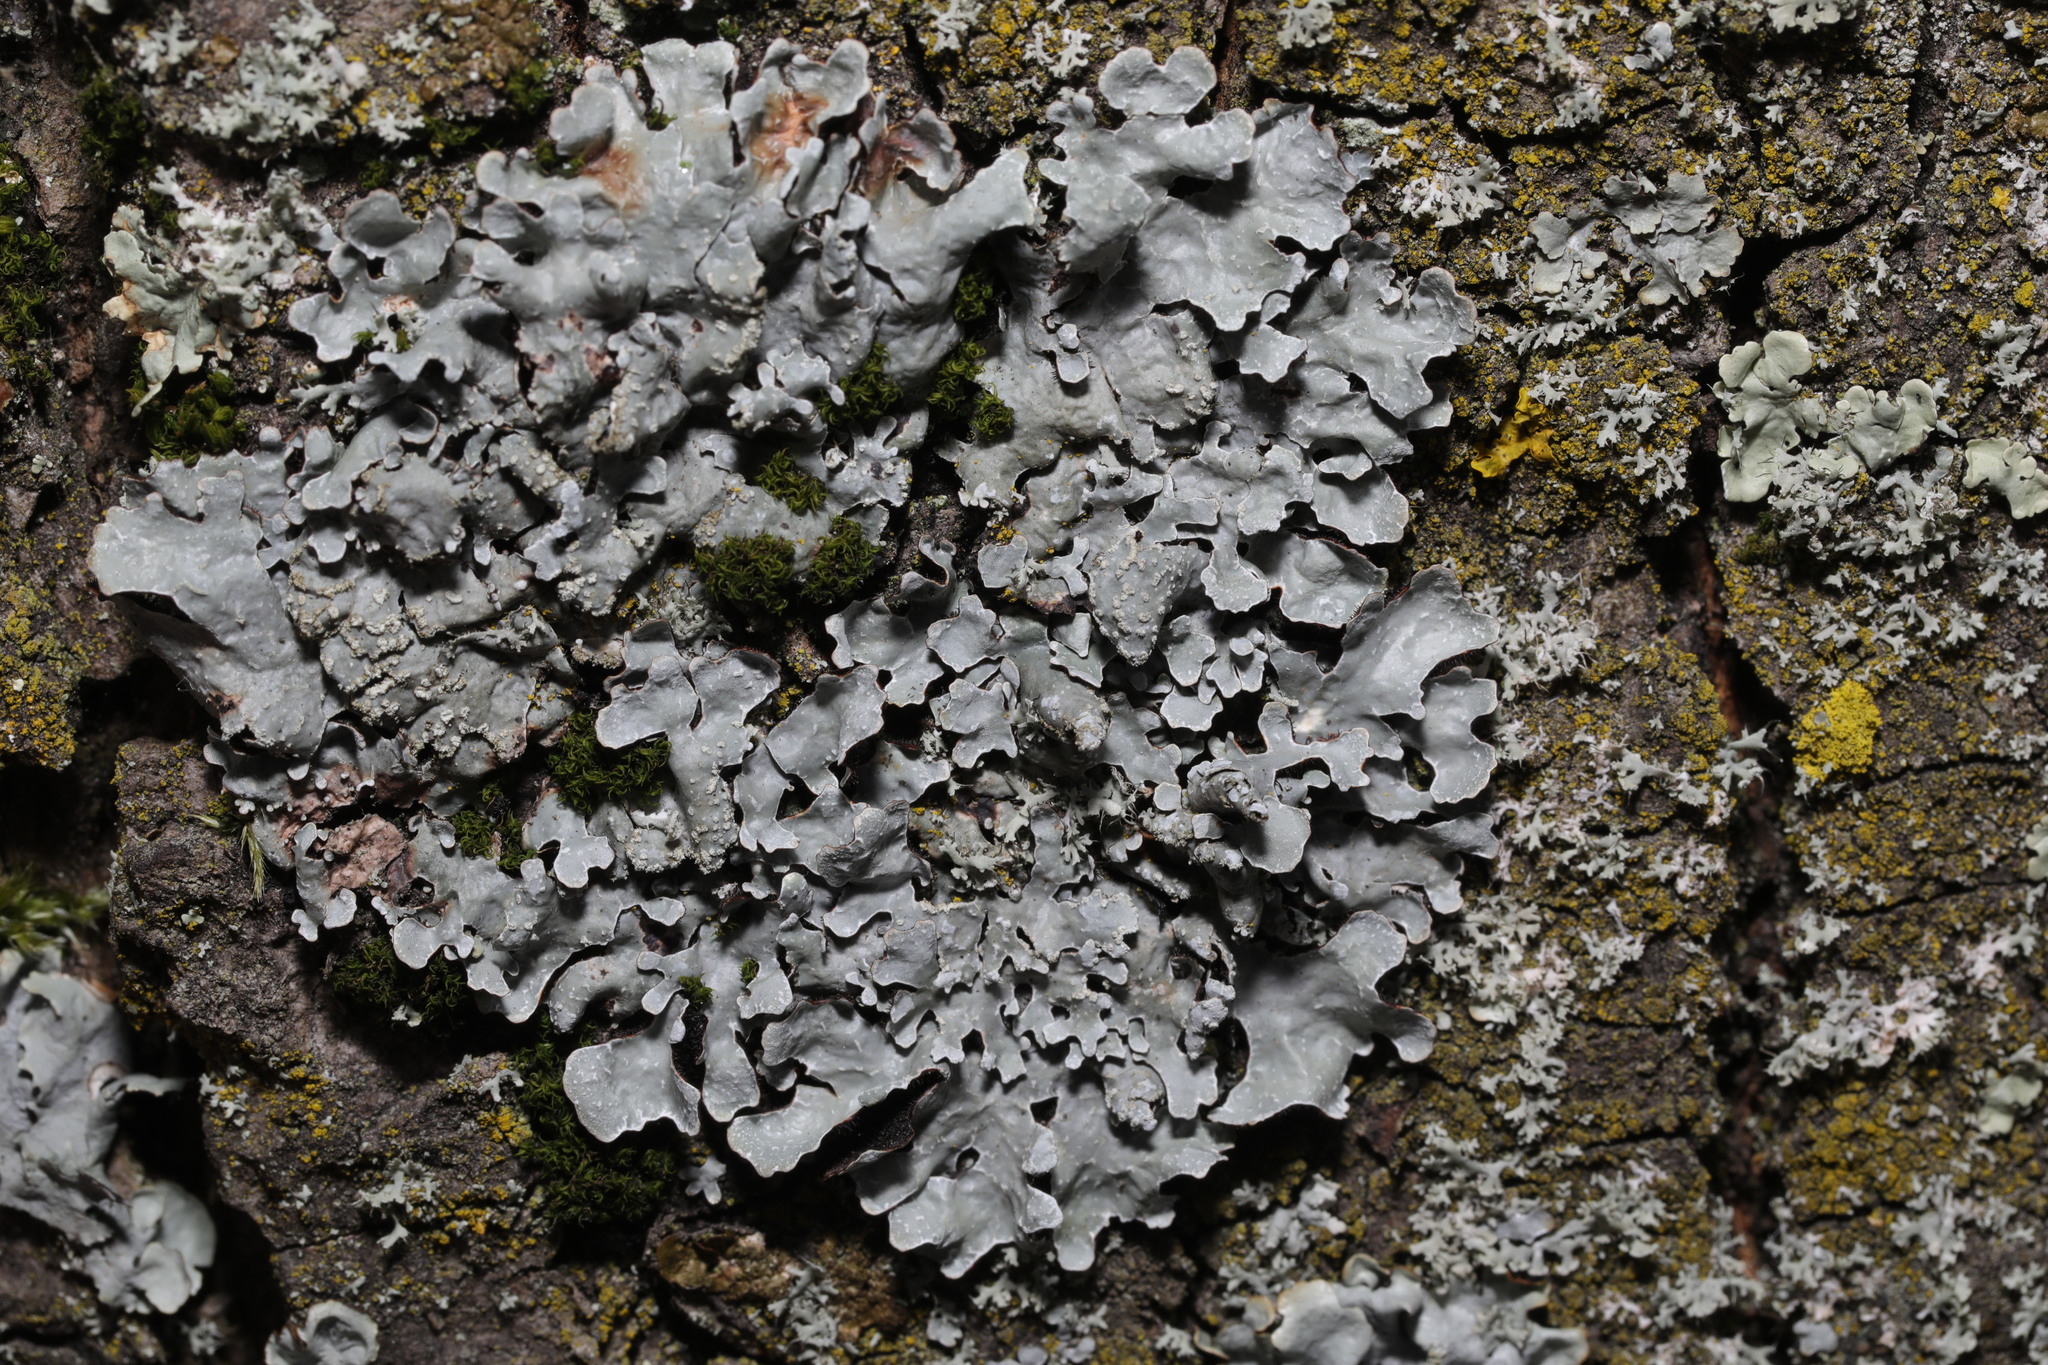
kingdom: Fungi
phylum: Ascomycota
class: Lecanoromycetes
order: Lecanorales
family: Parmeliaceae
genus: Parmelia
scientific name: Parmelia sulcata
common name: Netted shield lichen
